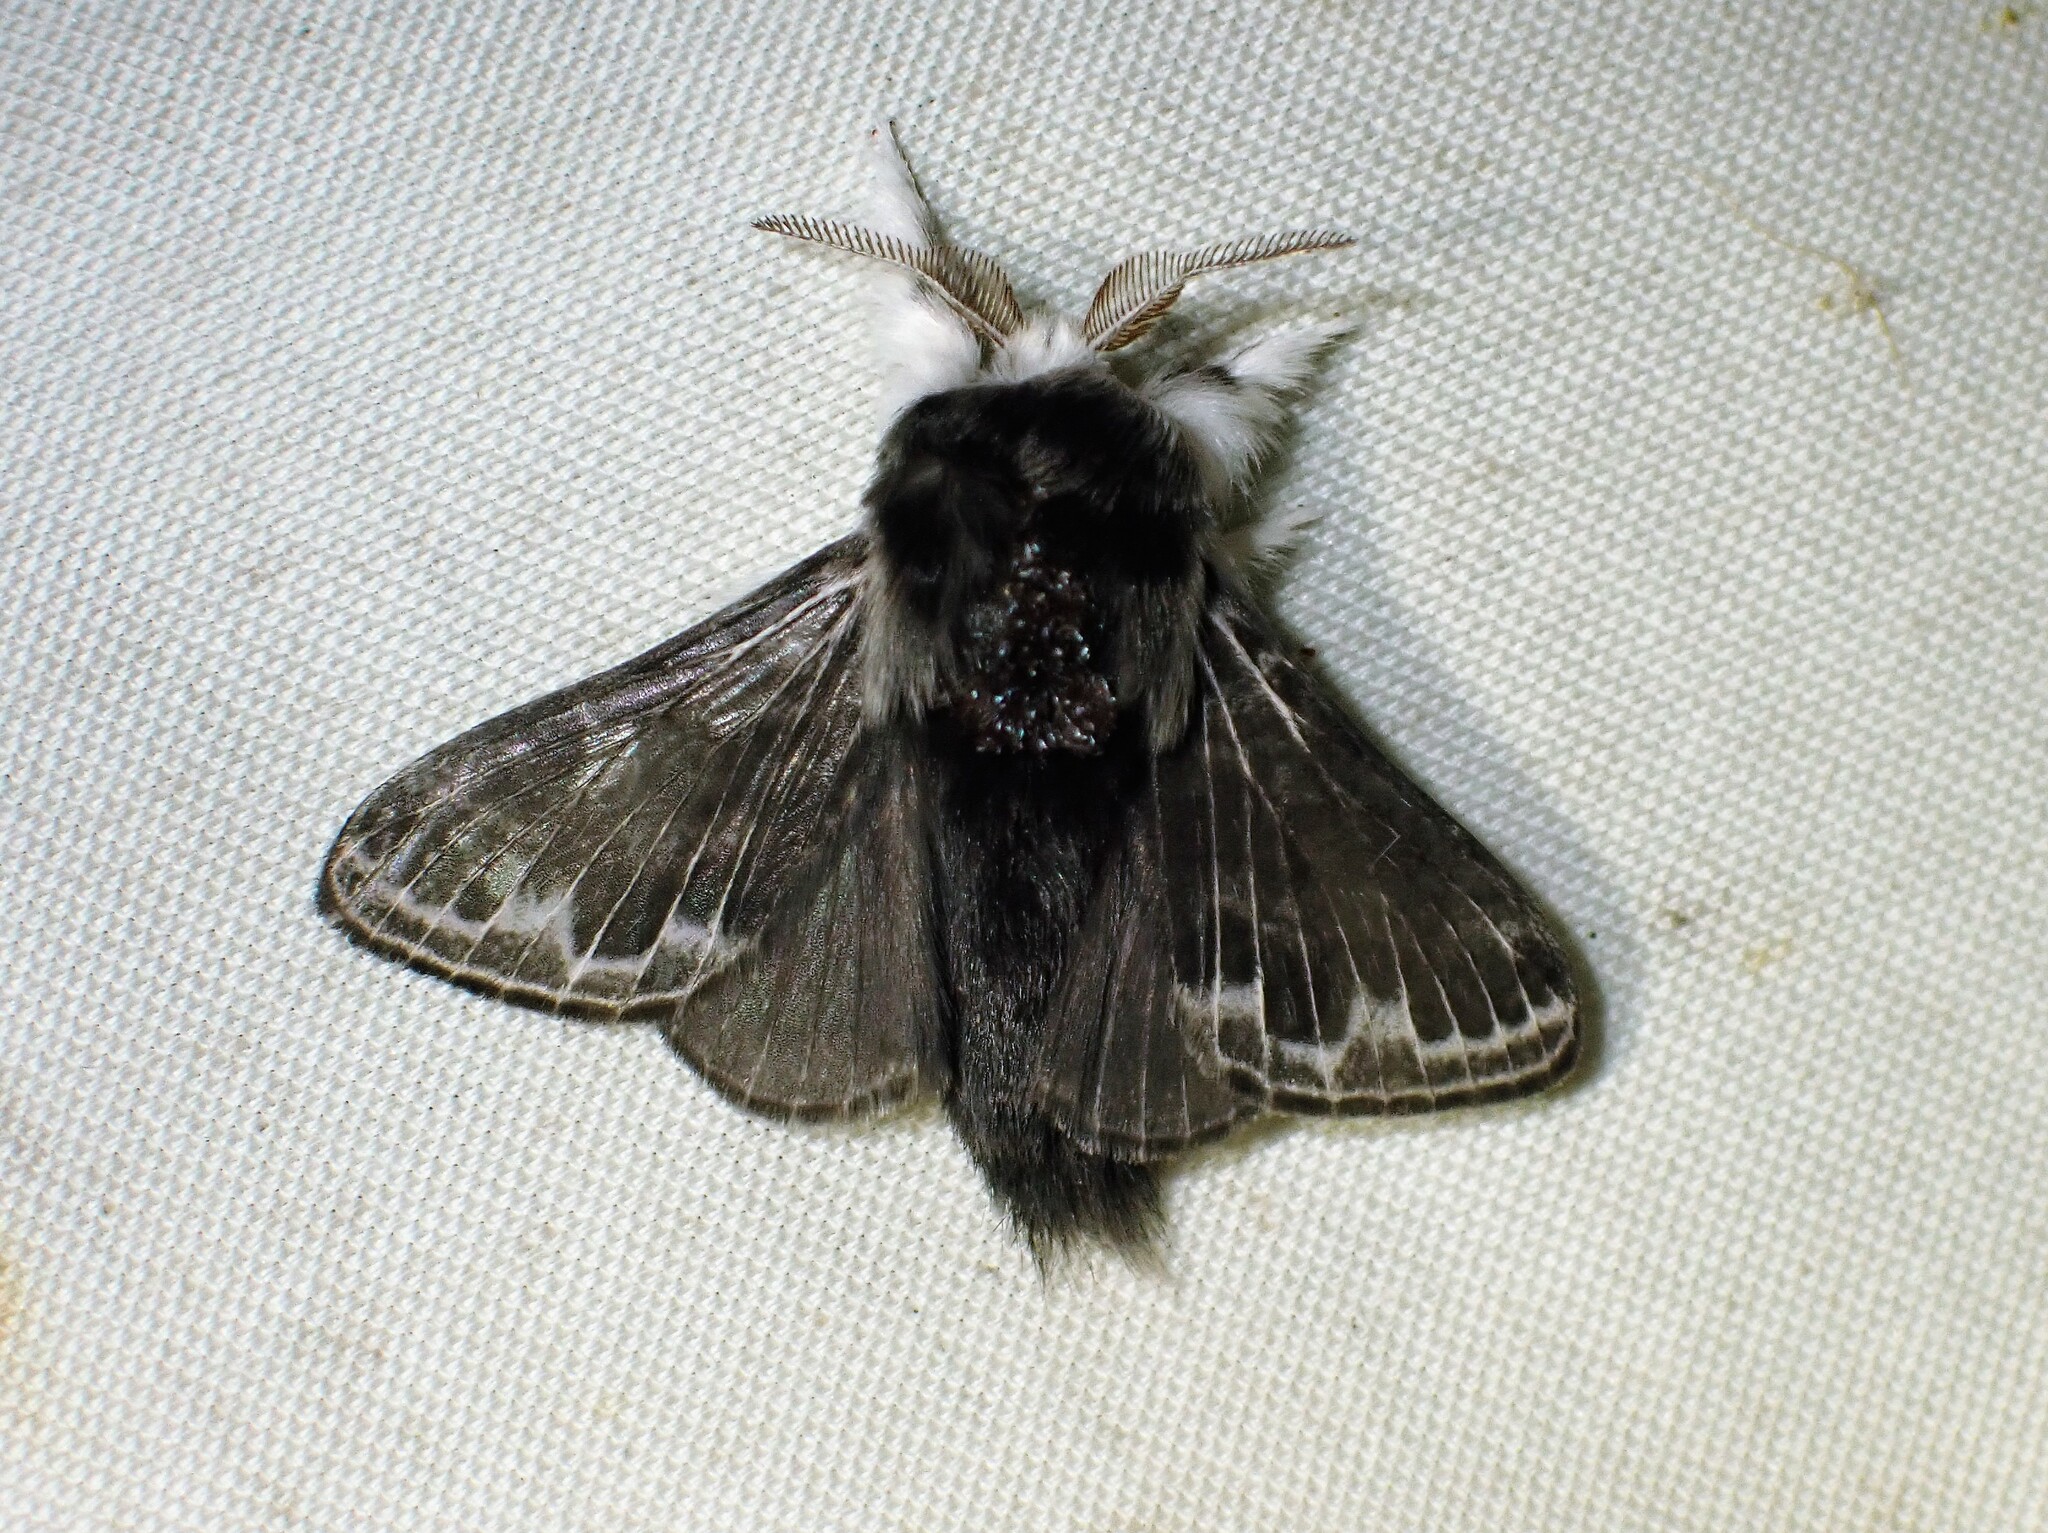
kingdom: Animalia
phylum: Arthropoda
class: Insecta
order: Lepidoptera
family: Lasiocampidae
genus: Tolype
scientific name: Tolype laricis
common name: Larch tolype moth
